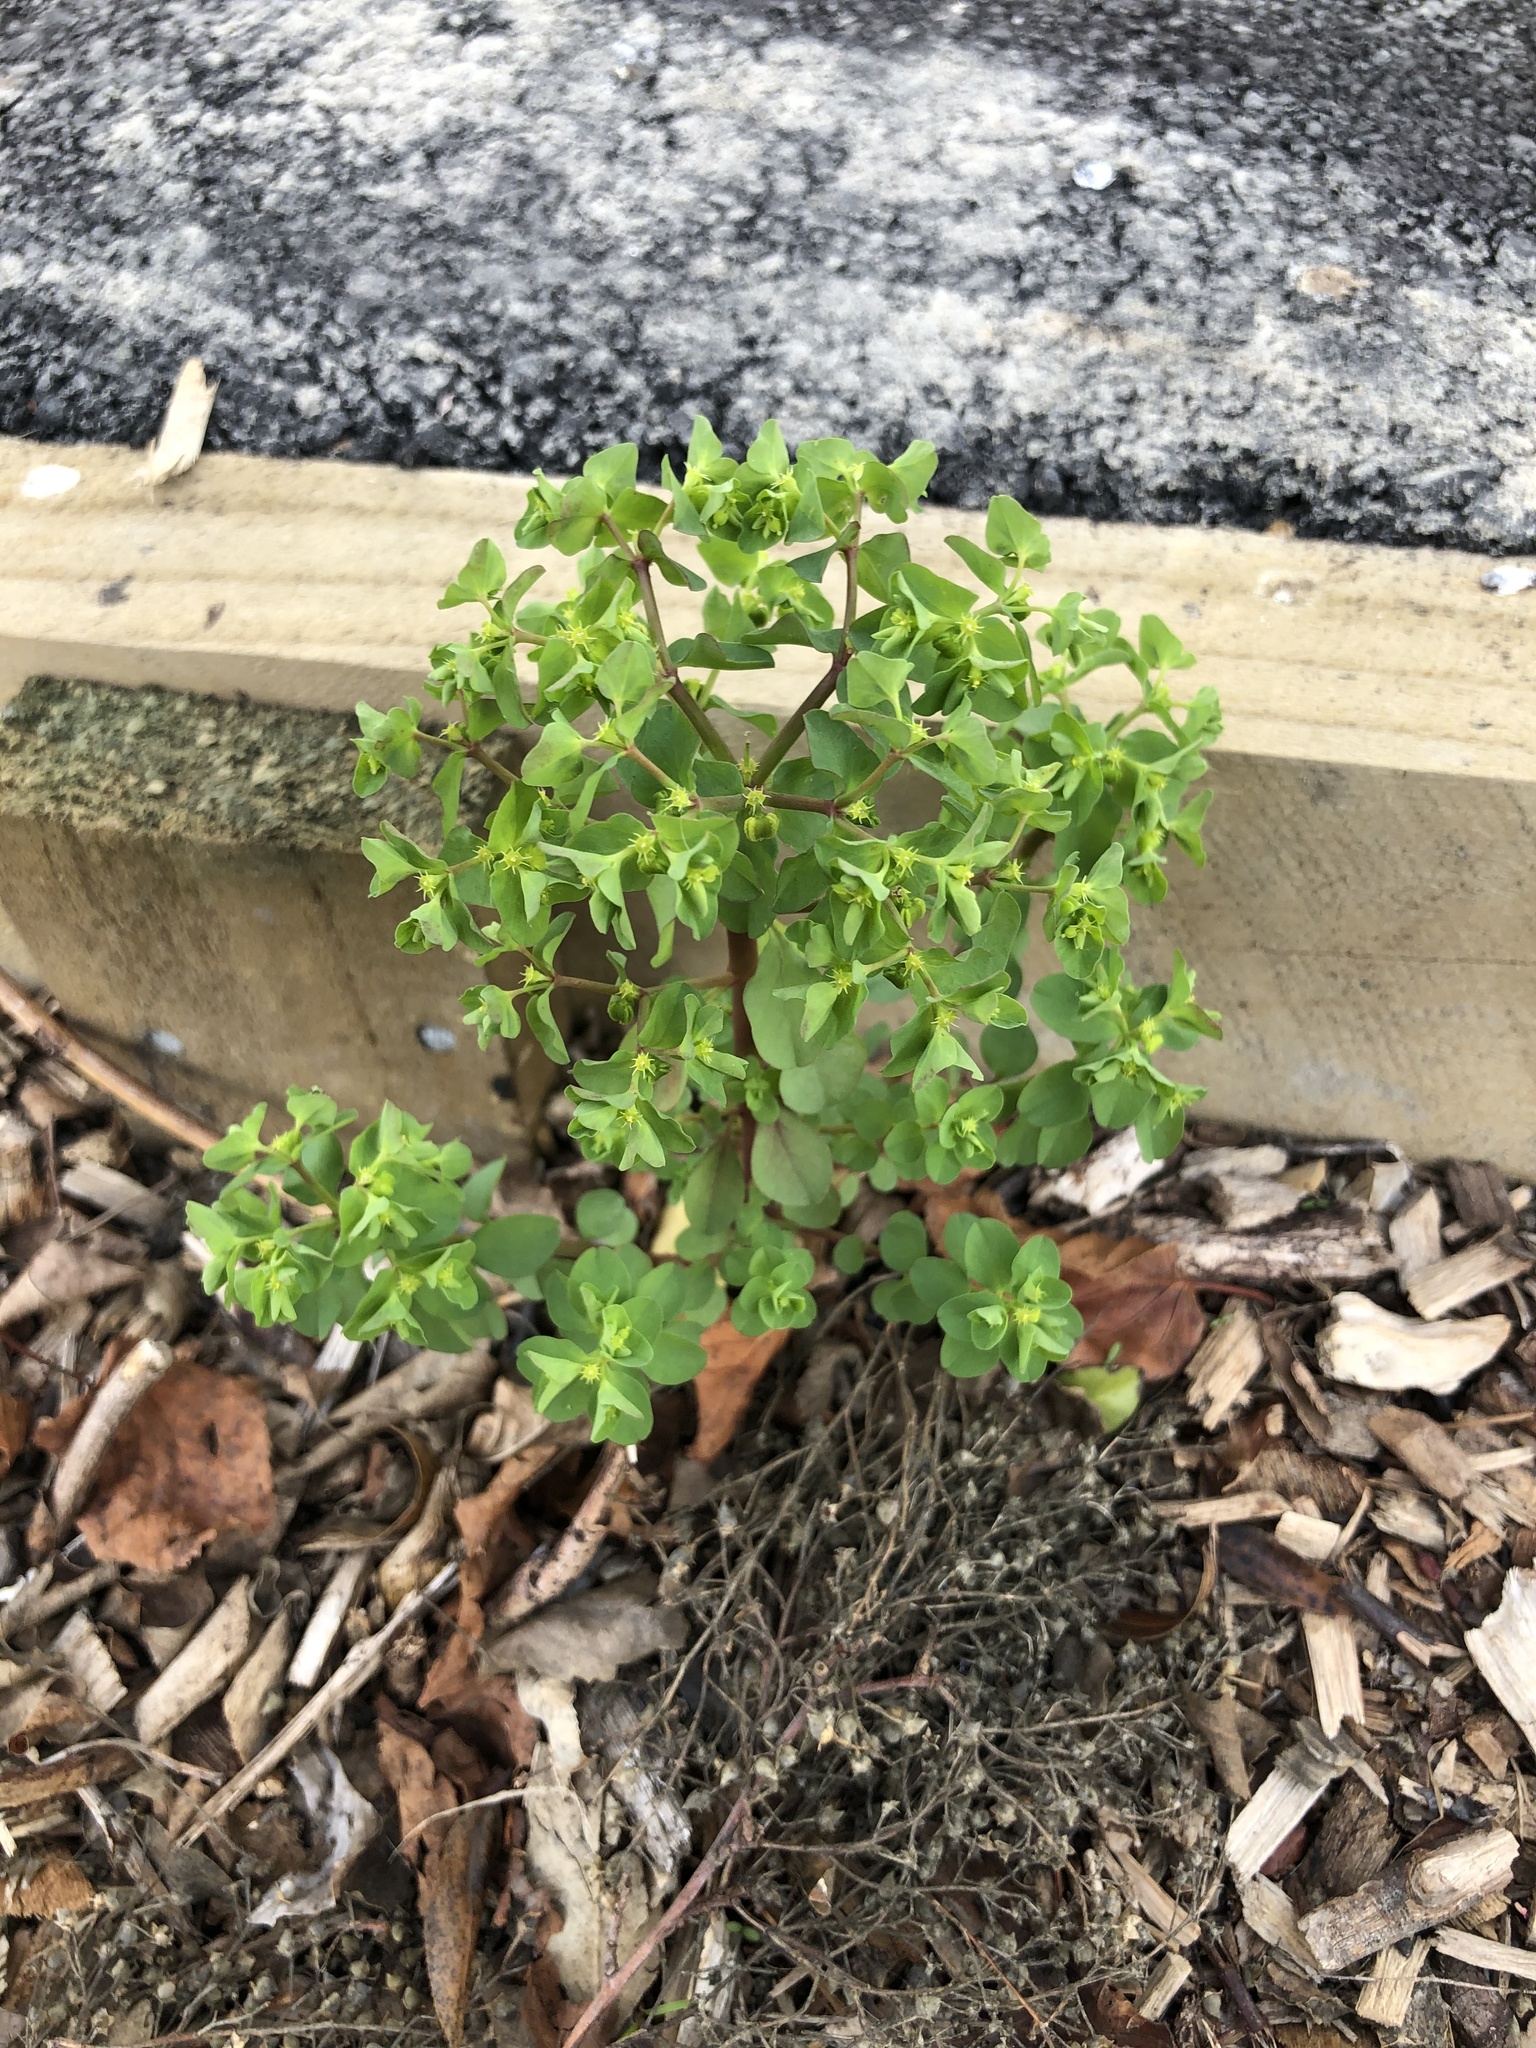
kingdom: Plantae
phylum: Tracheophyta
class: Magnoliopsida
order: Malpighiales
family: Euphorbiaceae
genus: Euphorbia
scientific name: Euphorbia peplus
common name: Petty spurge
